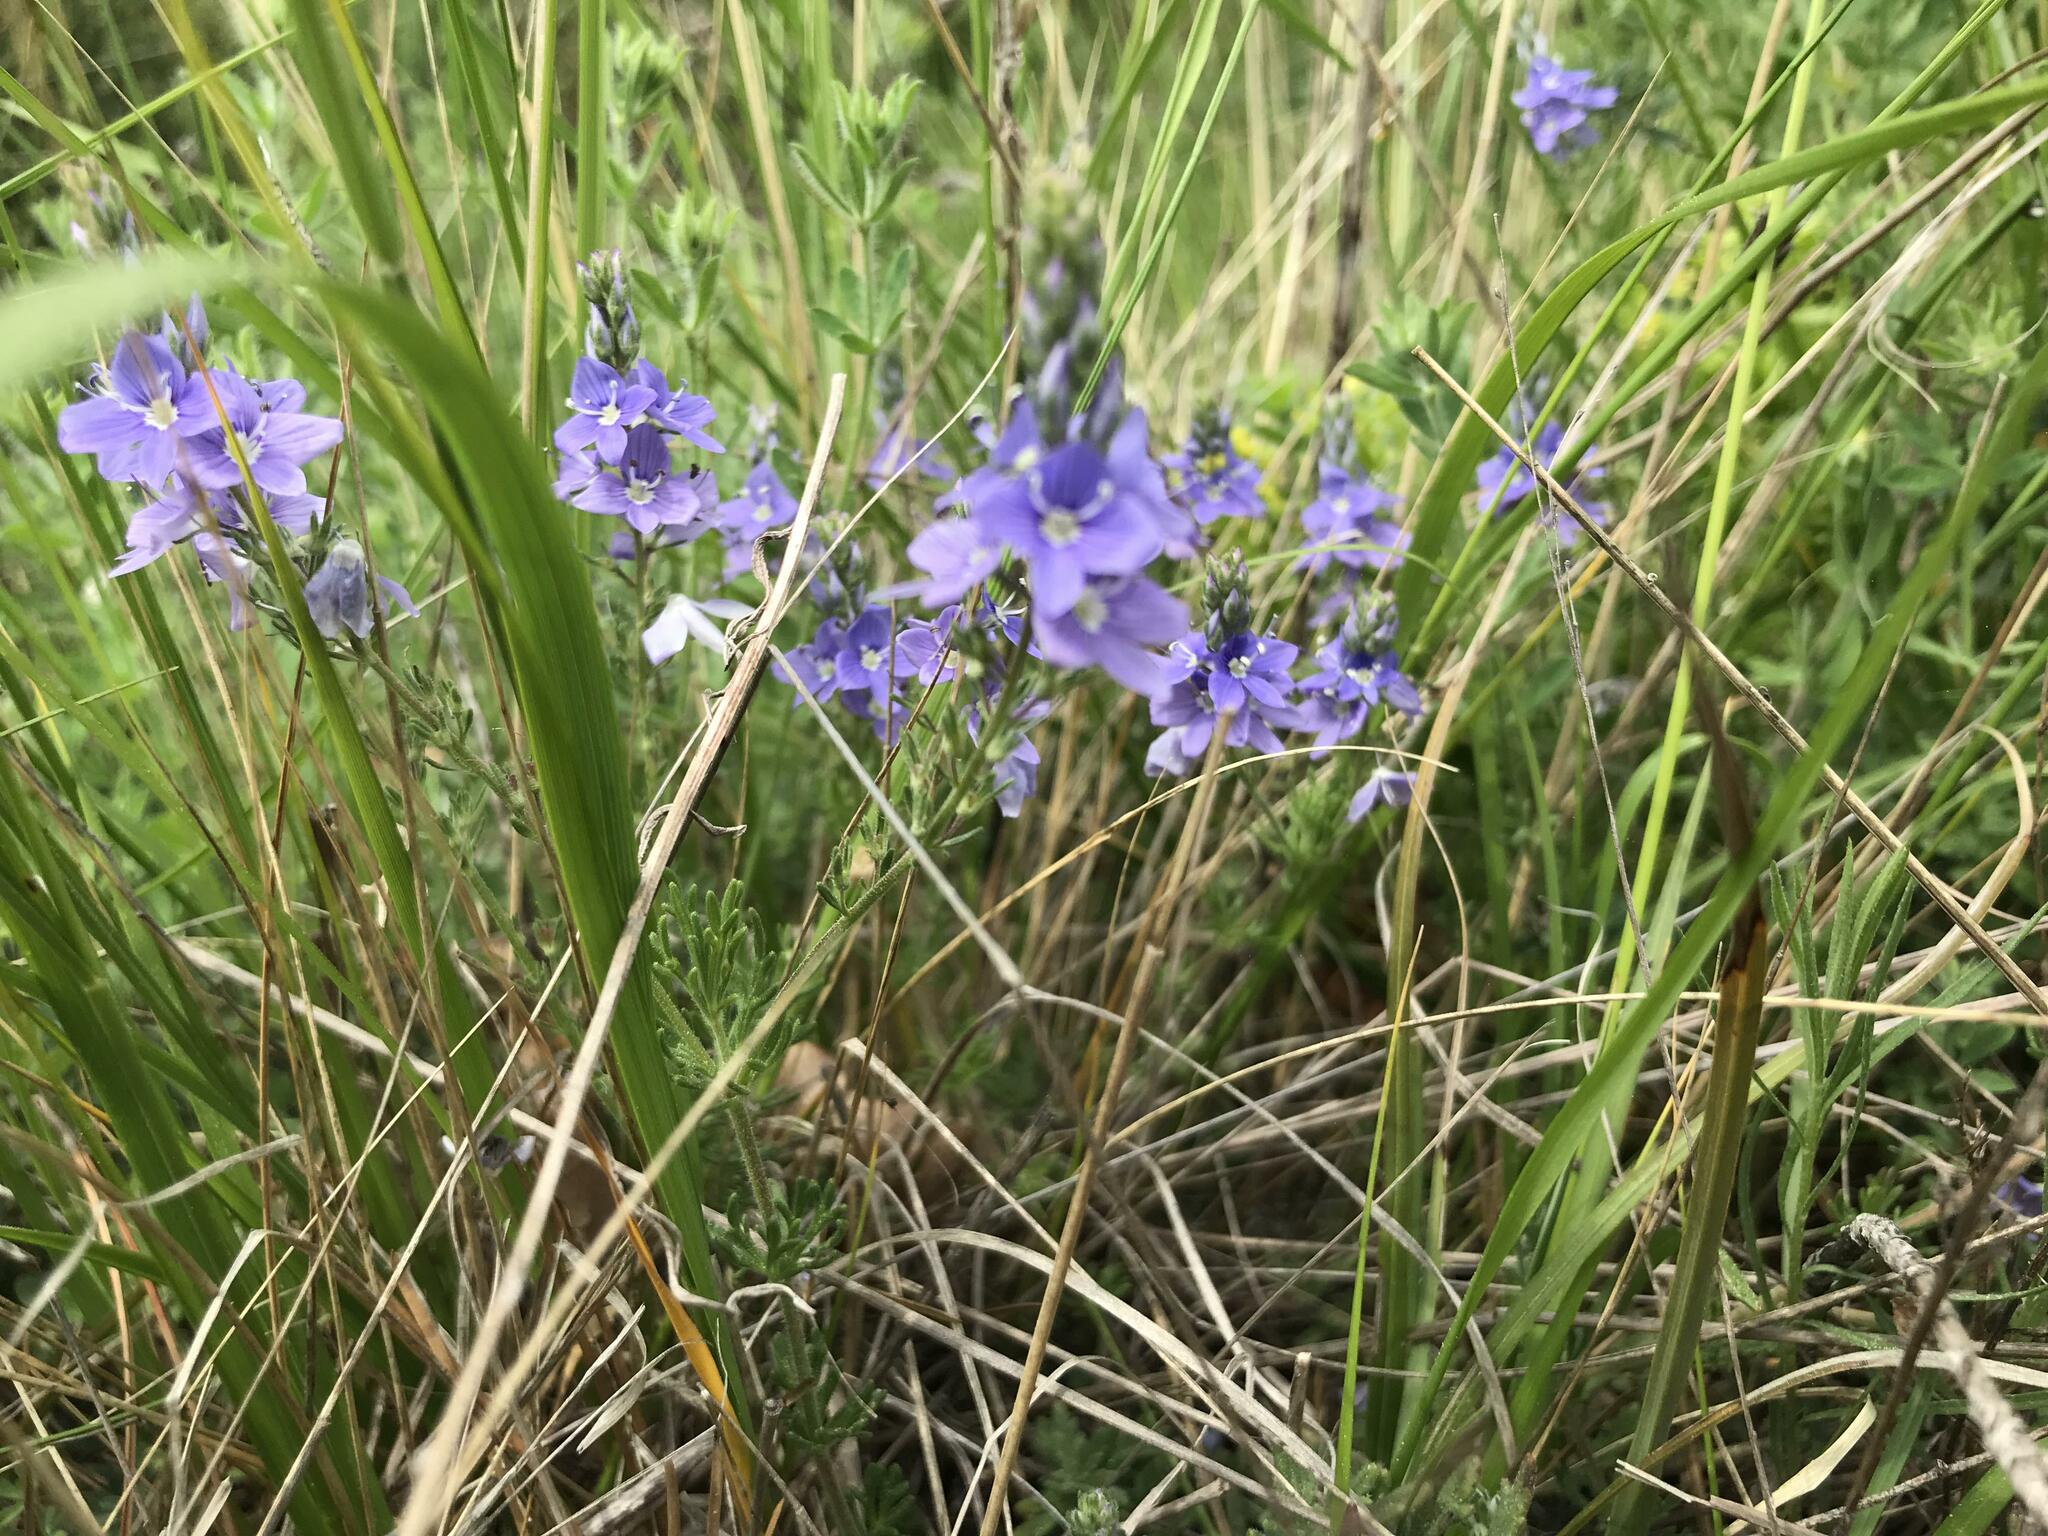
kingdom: Plantae
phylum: Tracheophyta
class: Magnoliopsida
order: Lamiales
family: Plantaginaceae
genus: Veronica
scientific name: Veronica capsellicarpa
